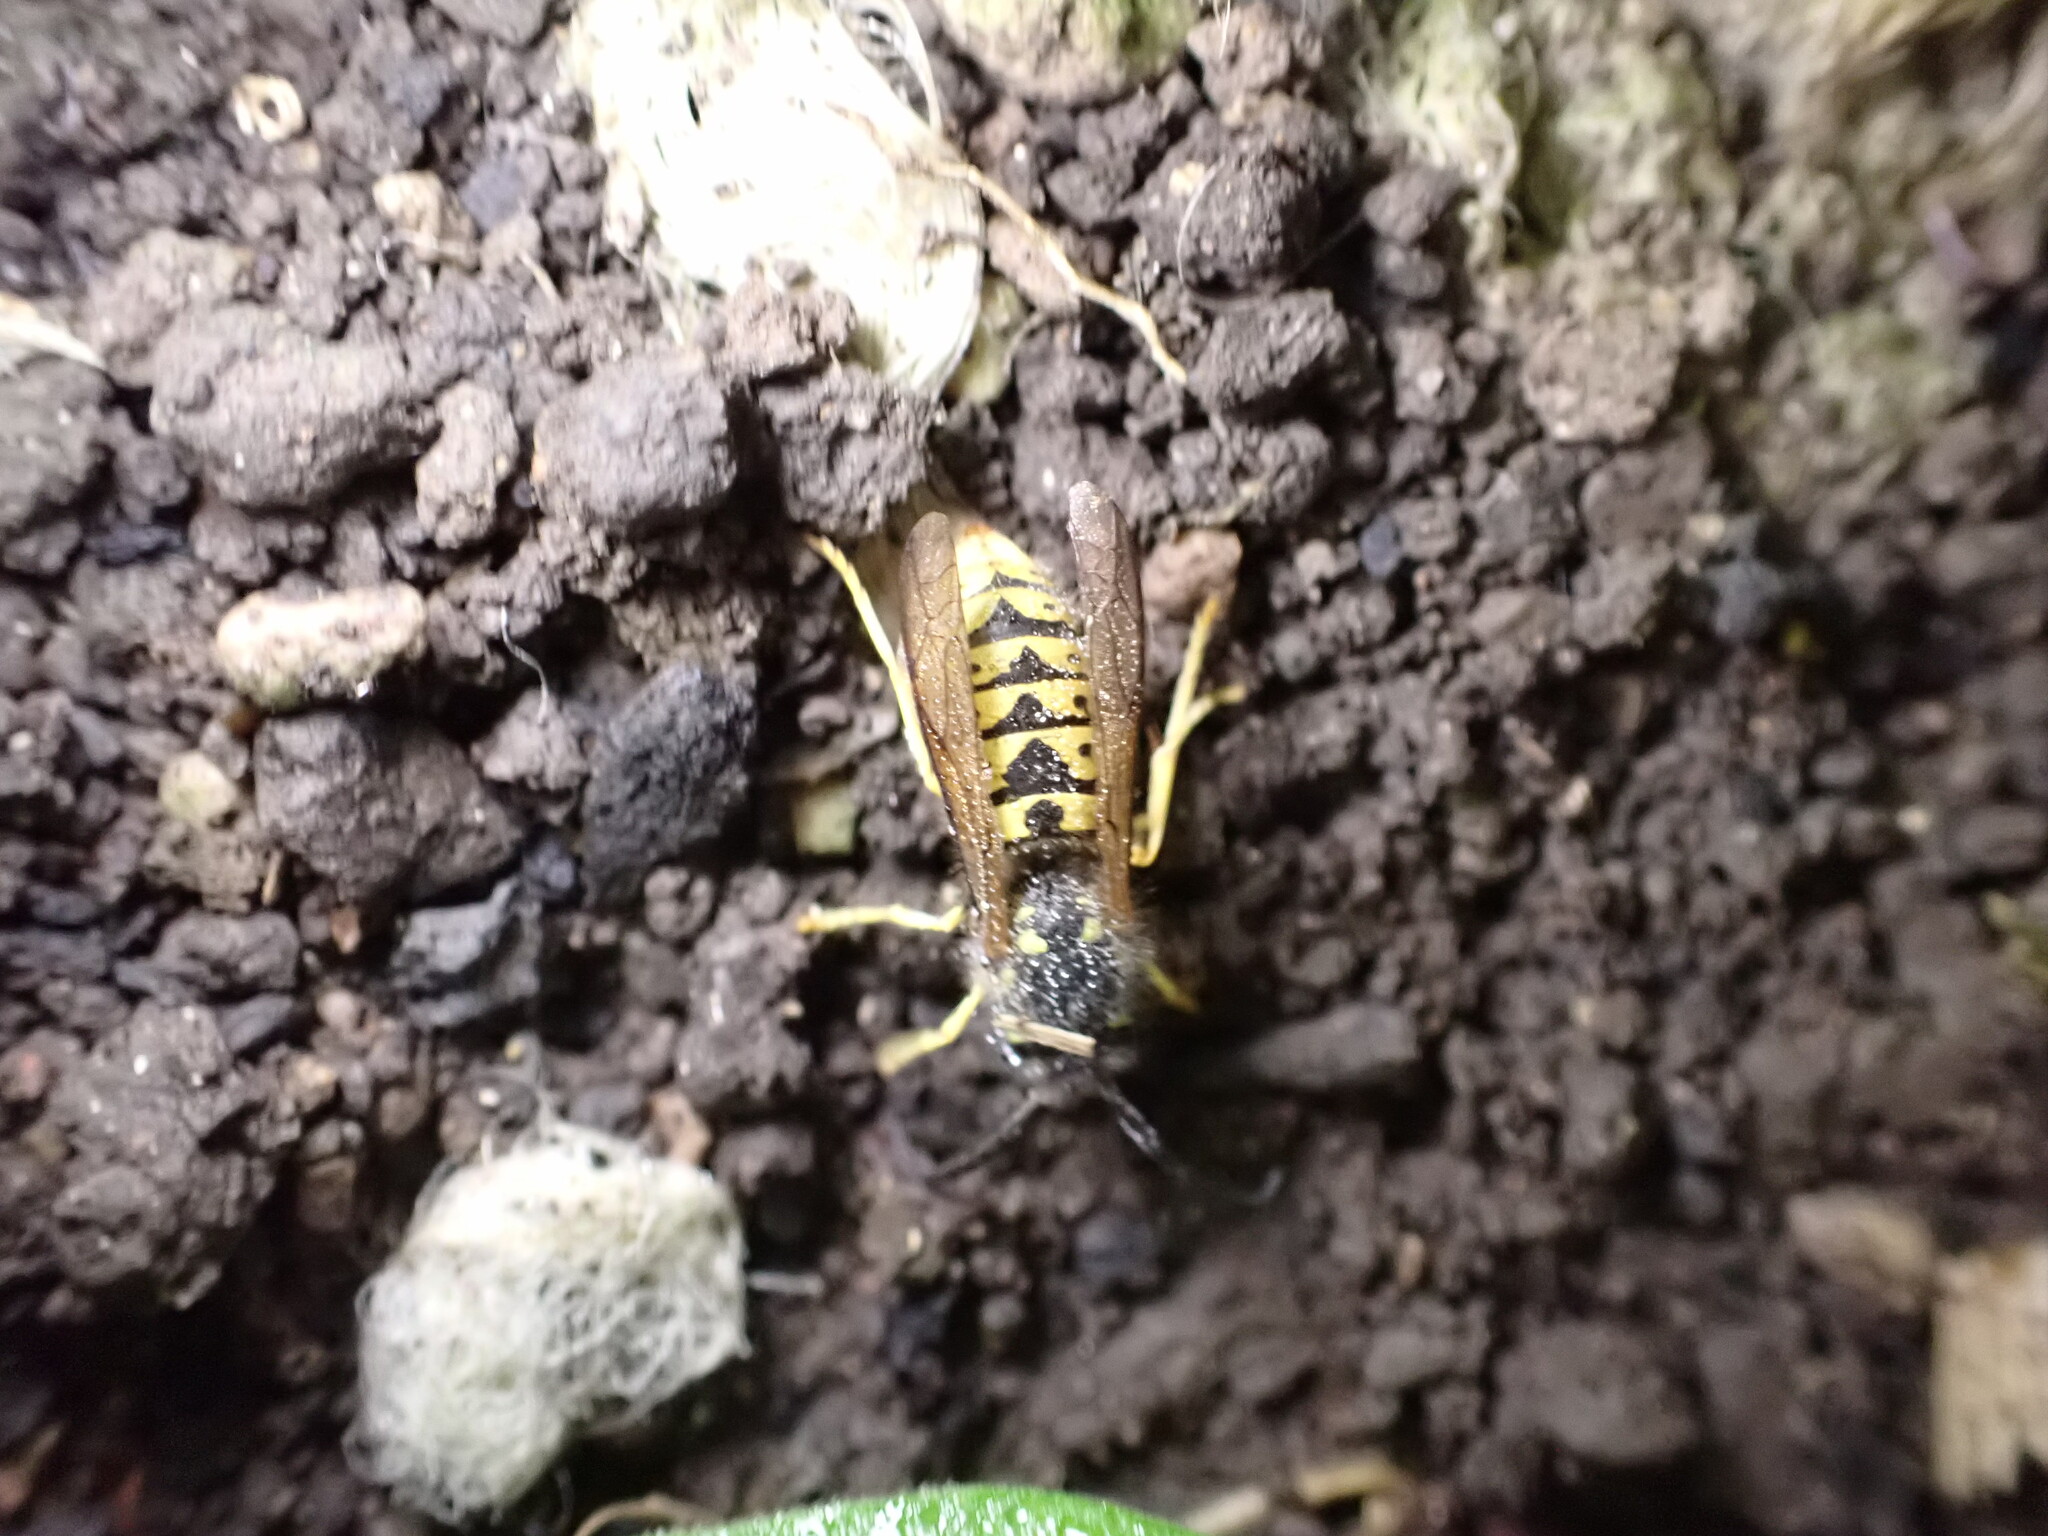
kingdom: Animalia
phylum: Arthropoda
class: Insecta
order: Hymenoptera
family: Vespidae
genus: Vespula
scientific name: Vespula germanica
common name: German wasp
